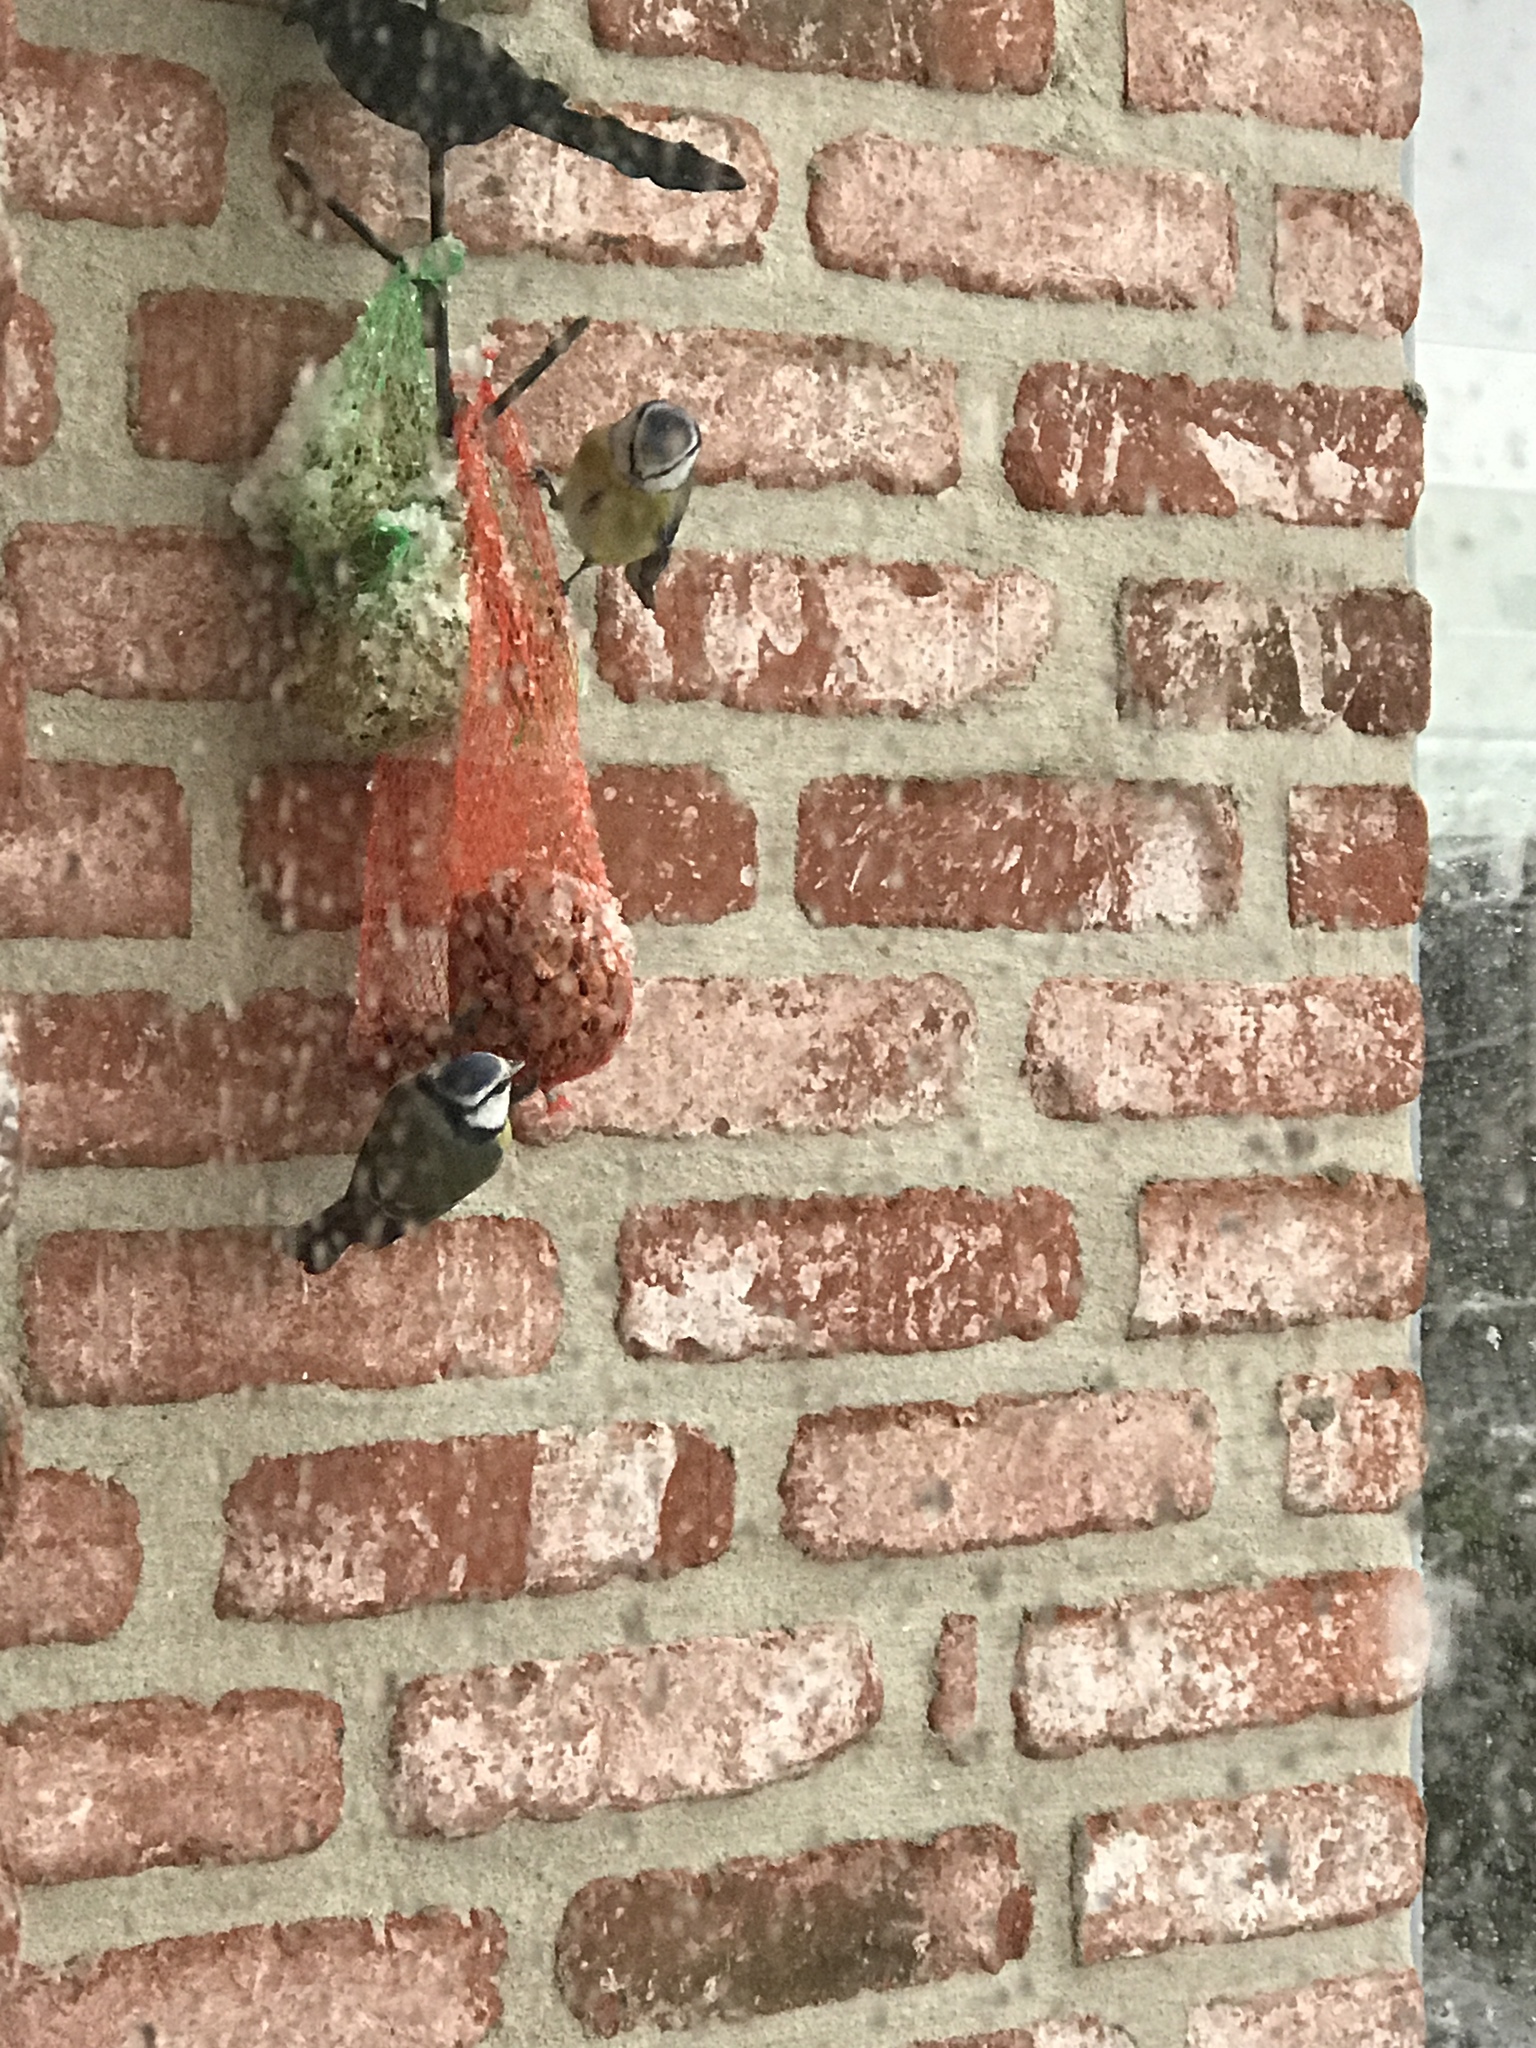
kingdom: Animalia
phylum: Chordata
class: Aves
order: Passeriformes
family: Paridae
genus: Cyanistes
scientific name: Cyanistes caeruleus
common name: Eurasian blue tit
